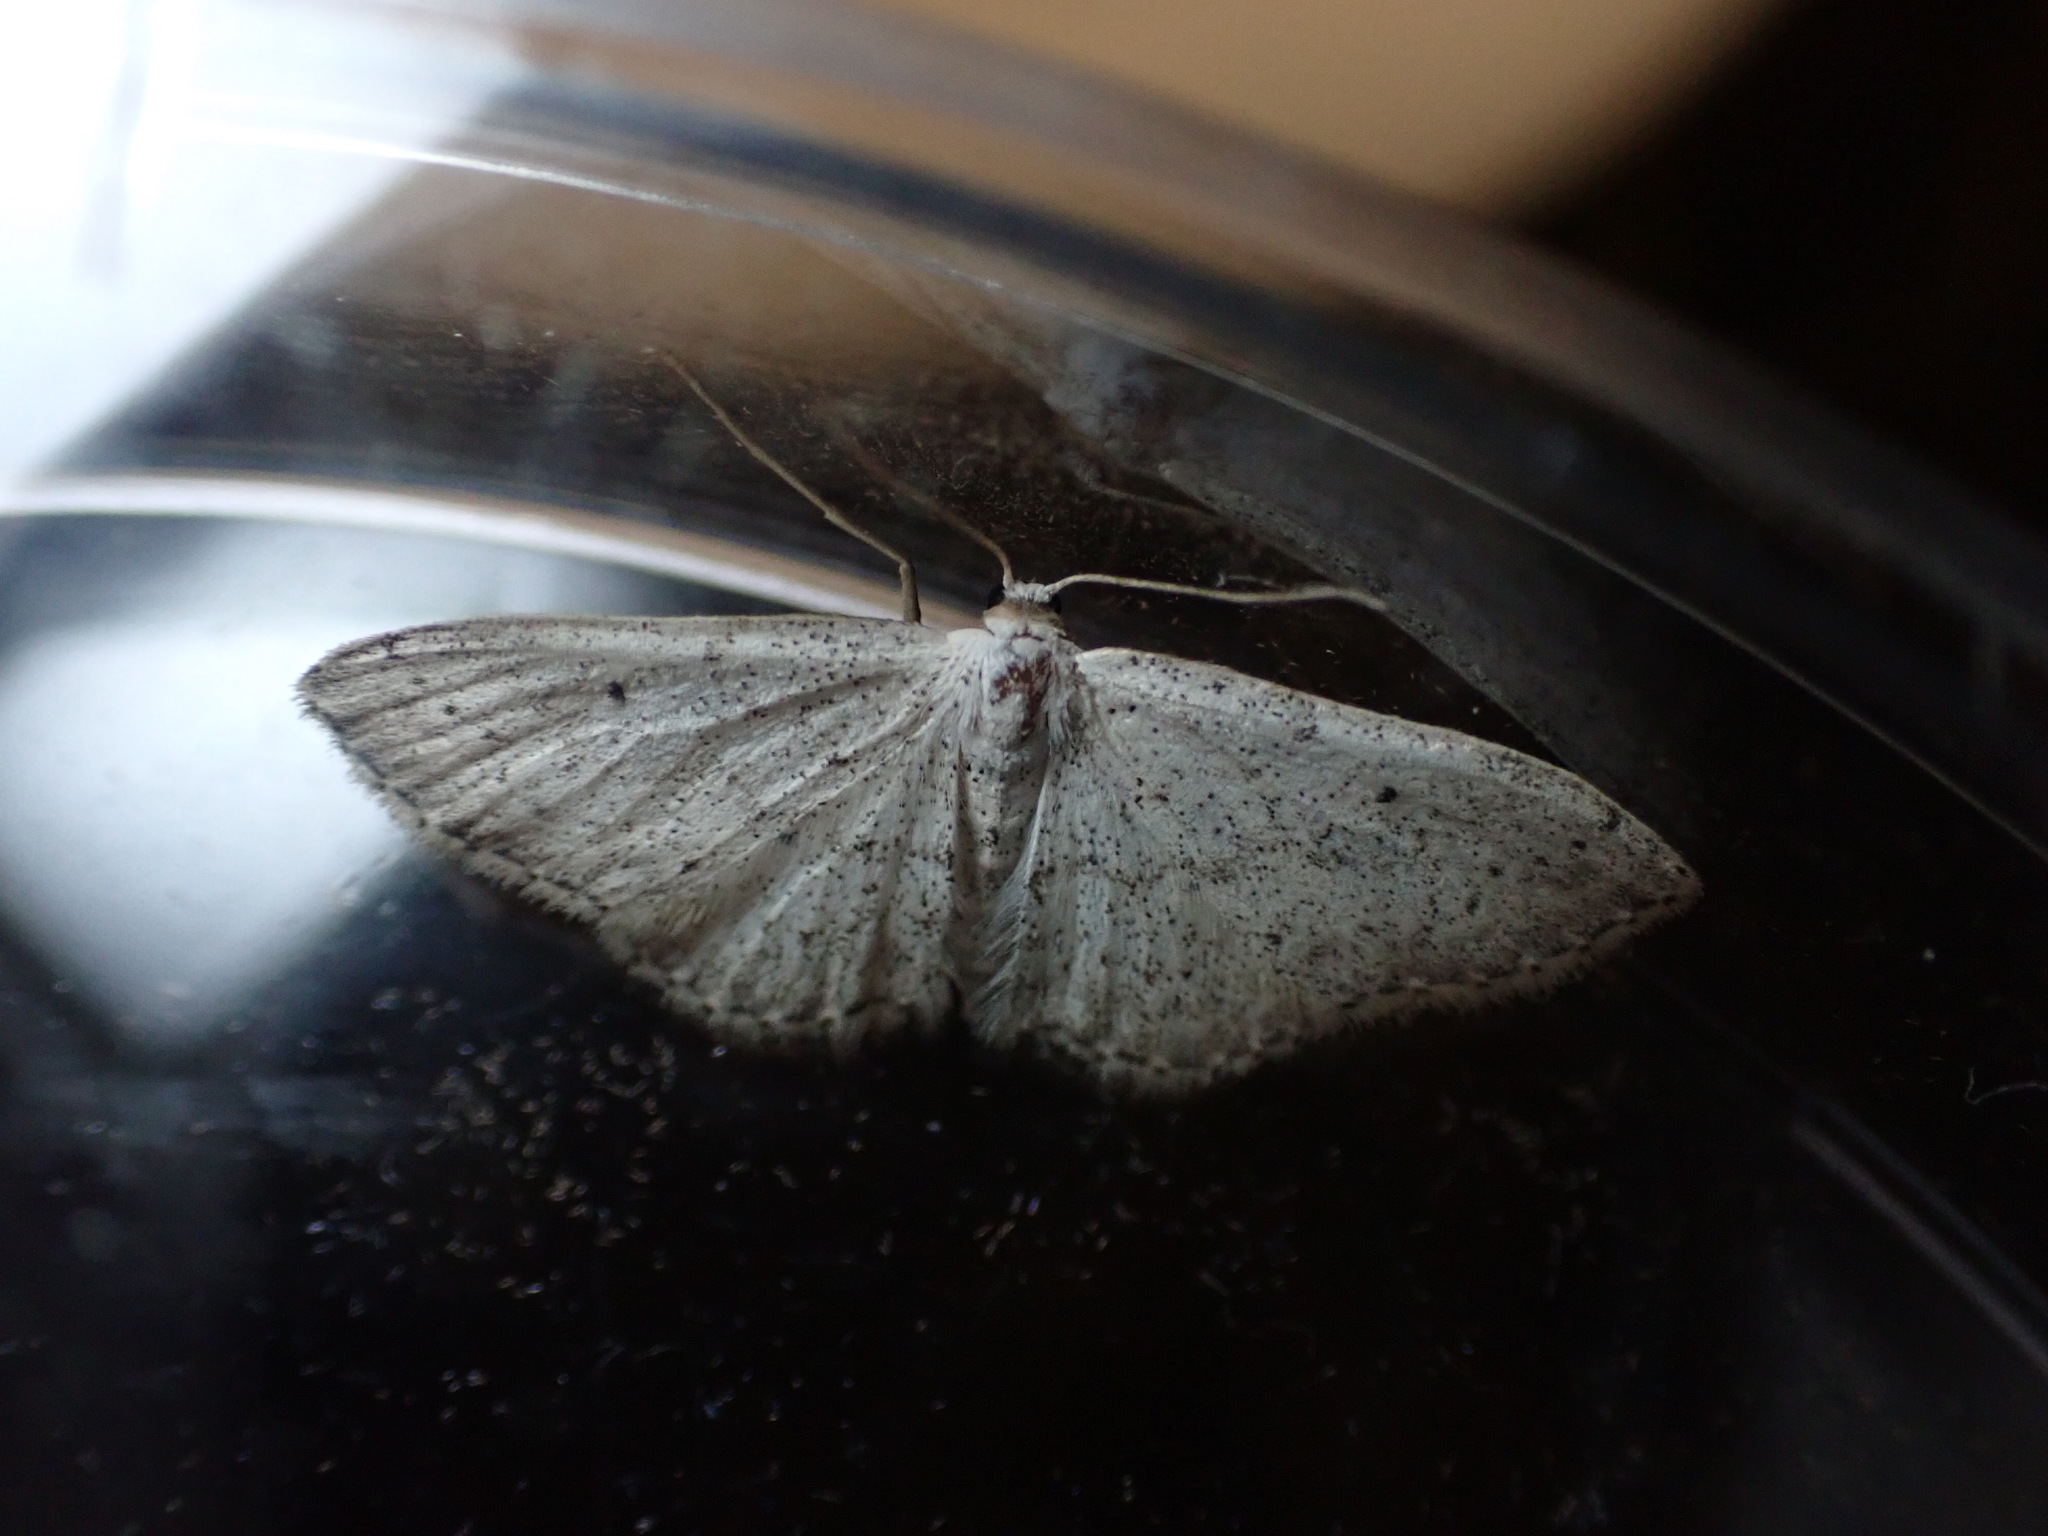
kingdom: Animalia
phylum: Arthropoda
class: Insecta
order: Lepidoptera
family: Geometridae
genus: Idaea
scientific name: Idaea seriata
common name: Small dusty wave
